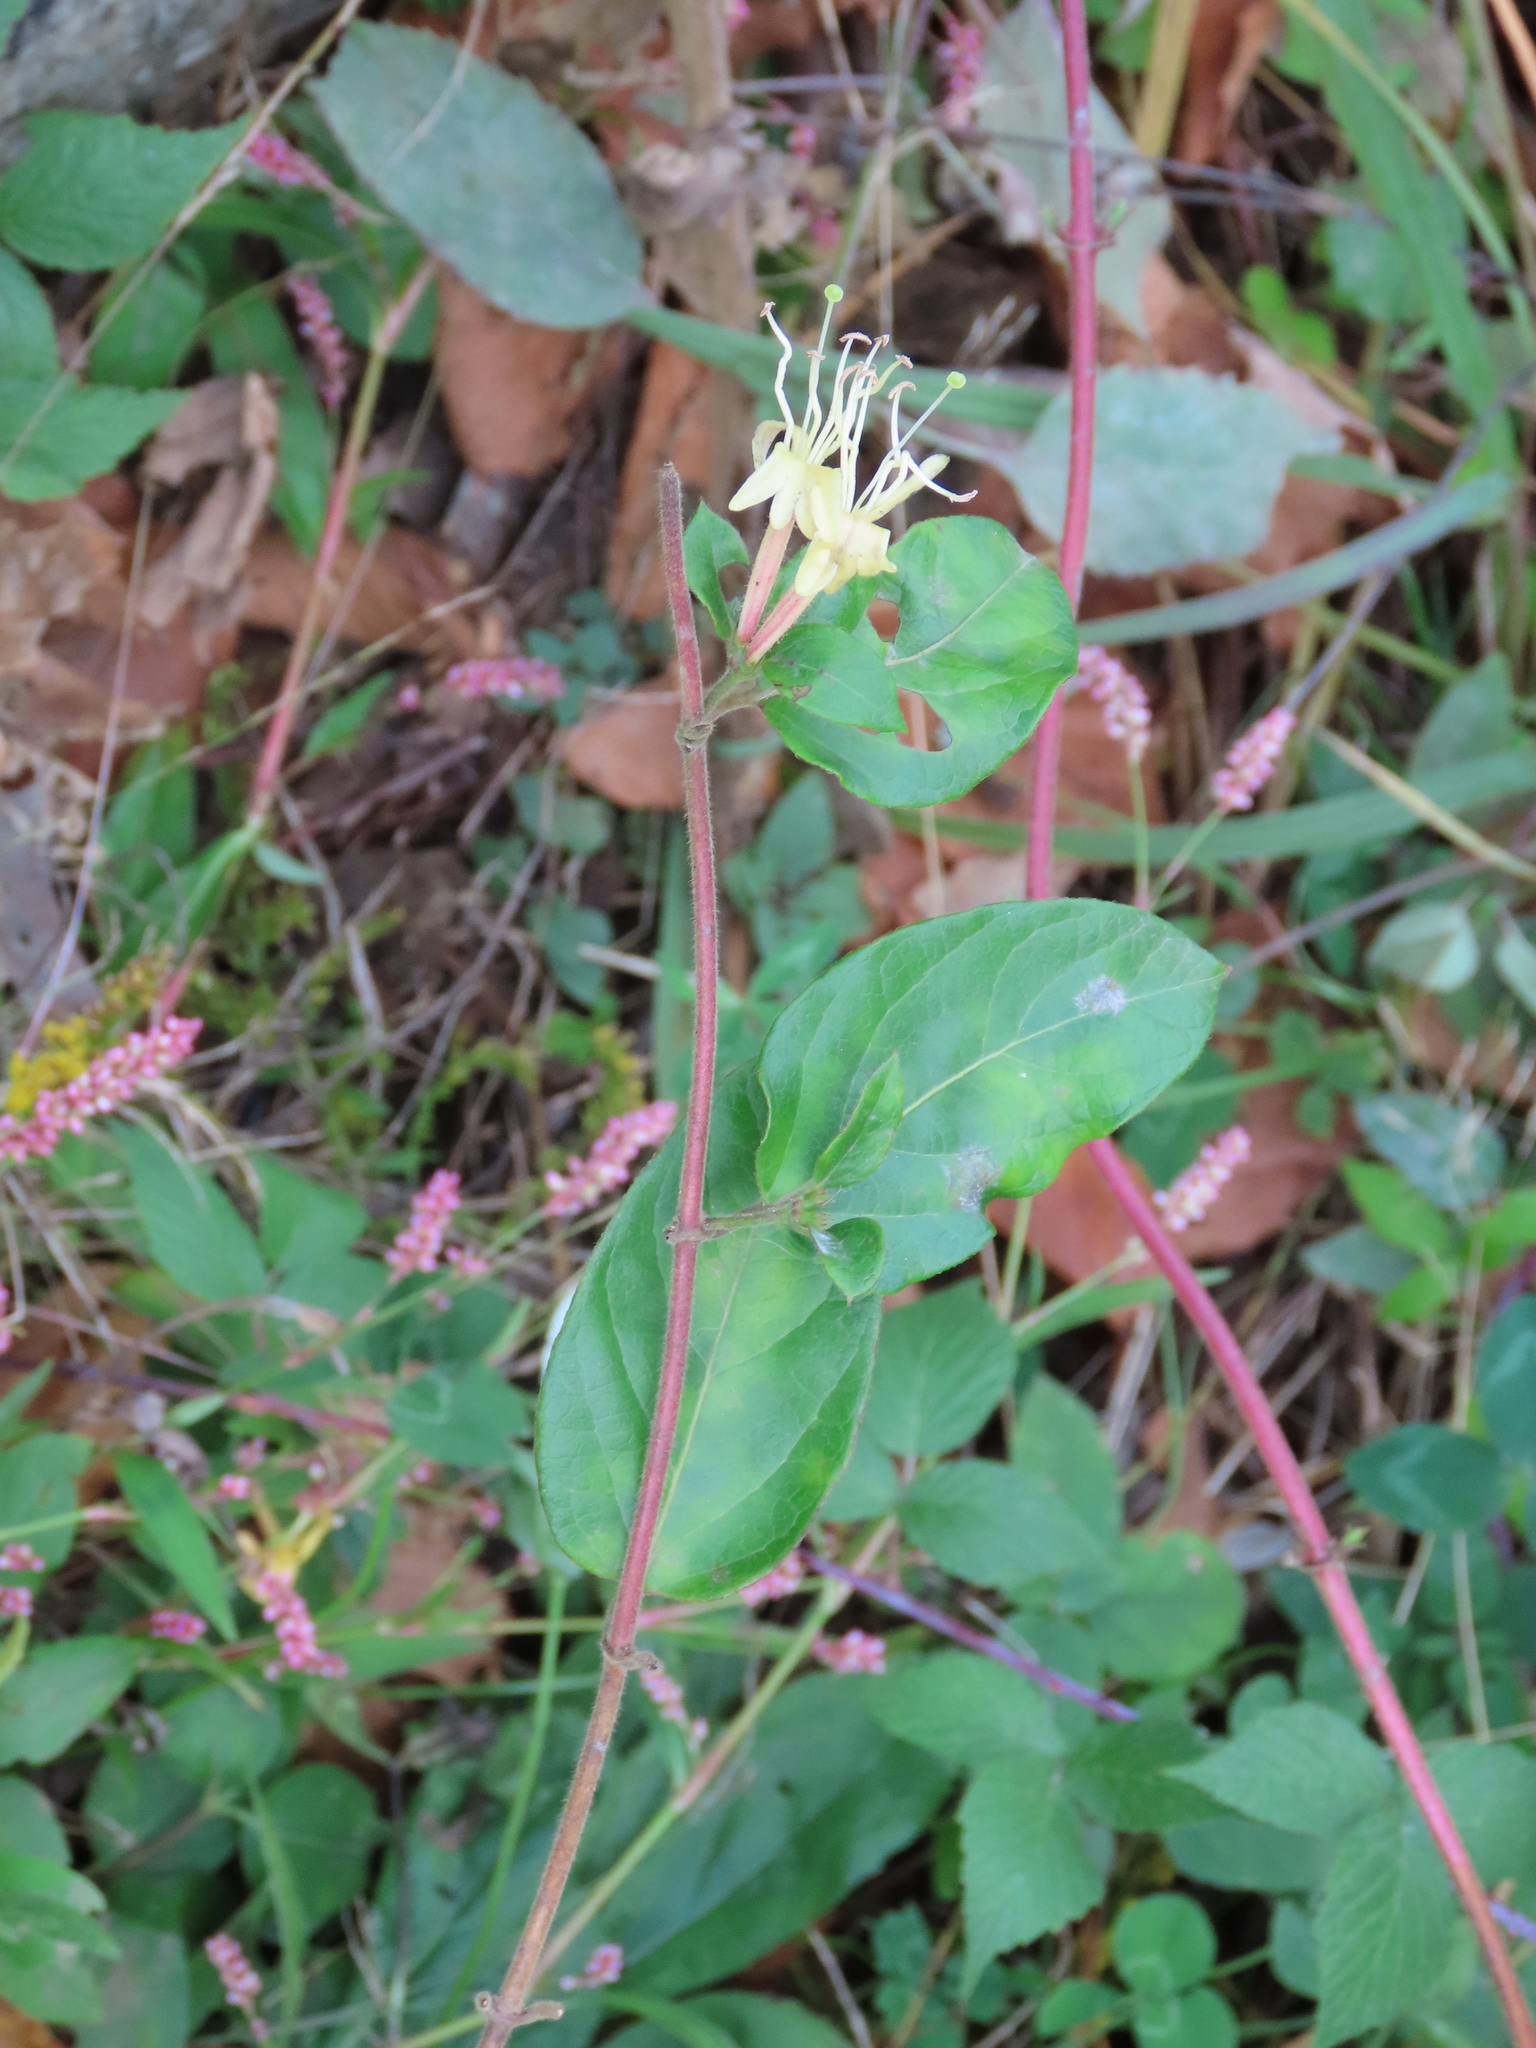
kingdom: Plantae
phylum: Tracheophyta
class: Magnoliopsida
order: Dipsacales
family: Caprifoliaceae
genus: Lonicera
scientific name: Lonicera japonica
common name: Japanese honeysuckle
